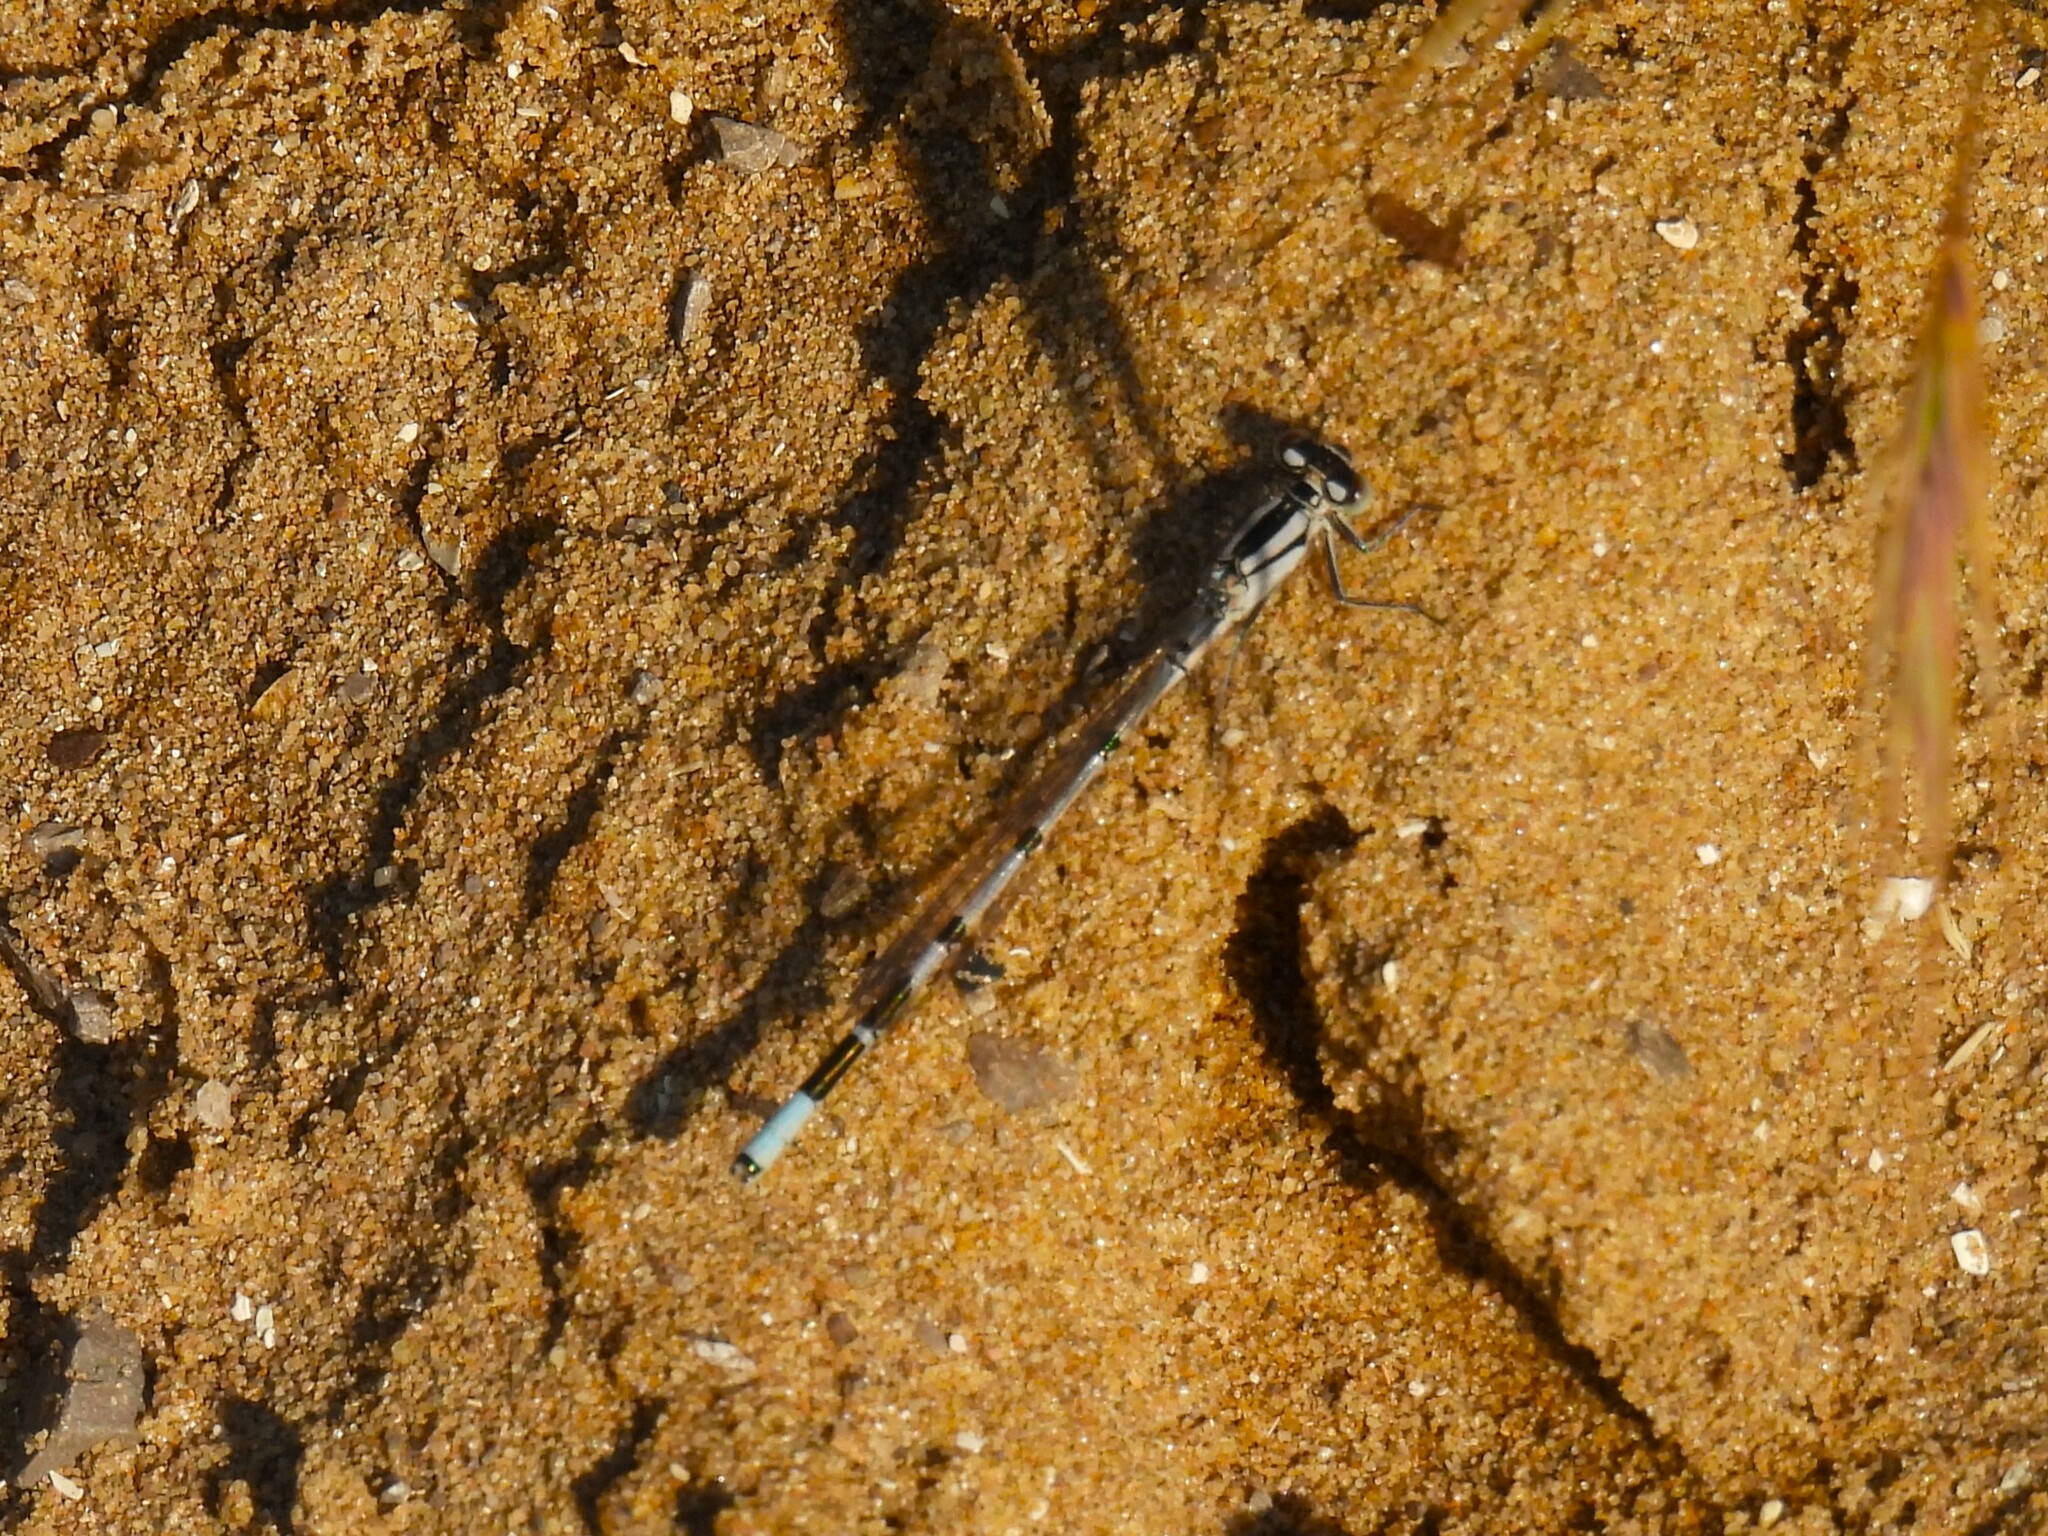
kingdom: Animalia
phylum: Arthropoda
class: Insecta
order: Odonata
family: Coenagrionidae
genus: Enallagma
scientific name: Enallagma cyathigerum
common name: Common blue damselfly
